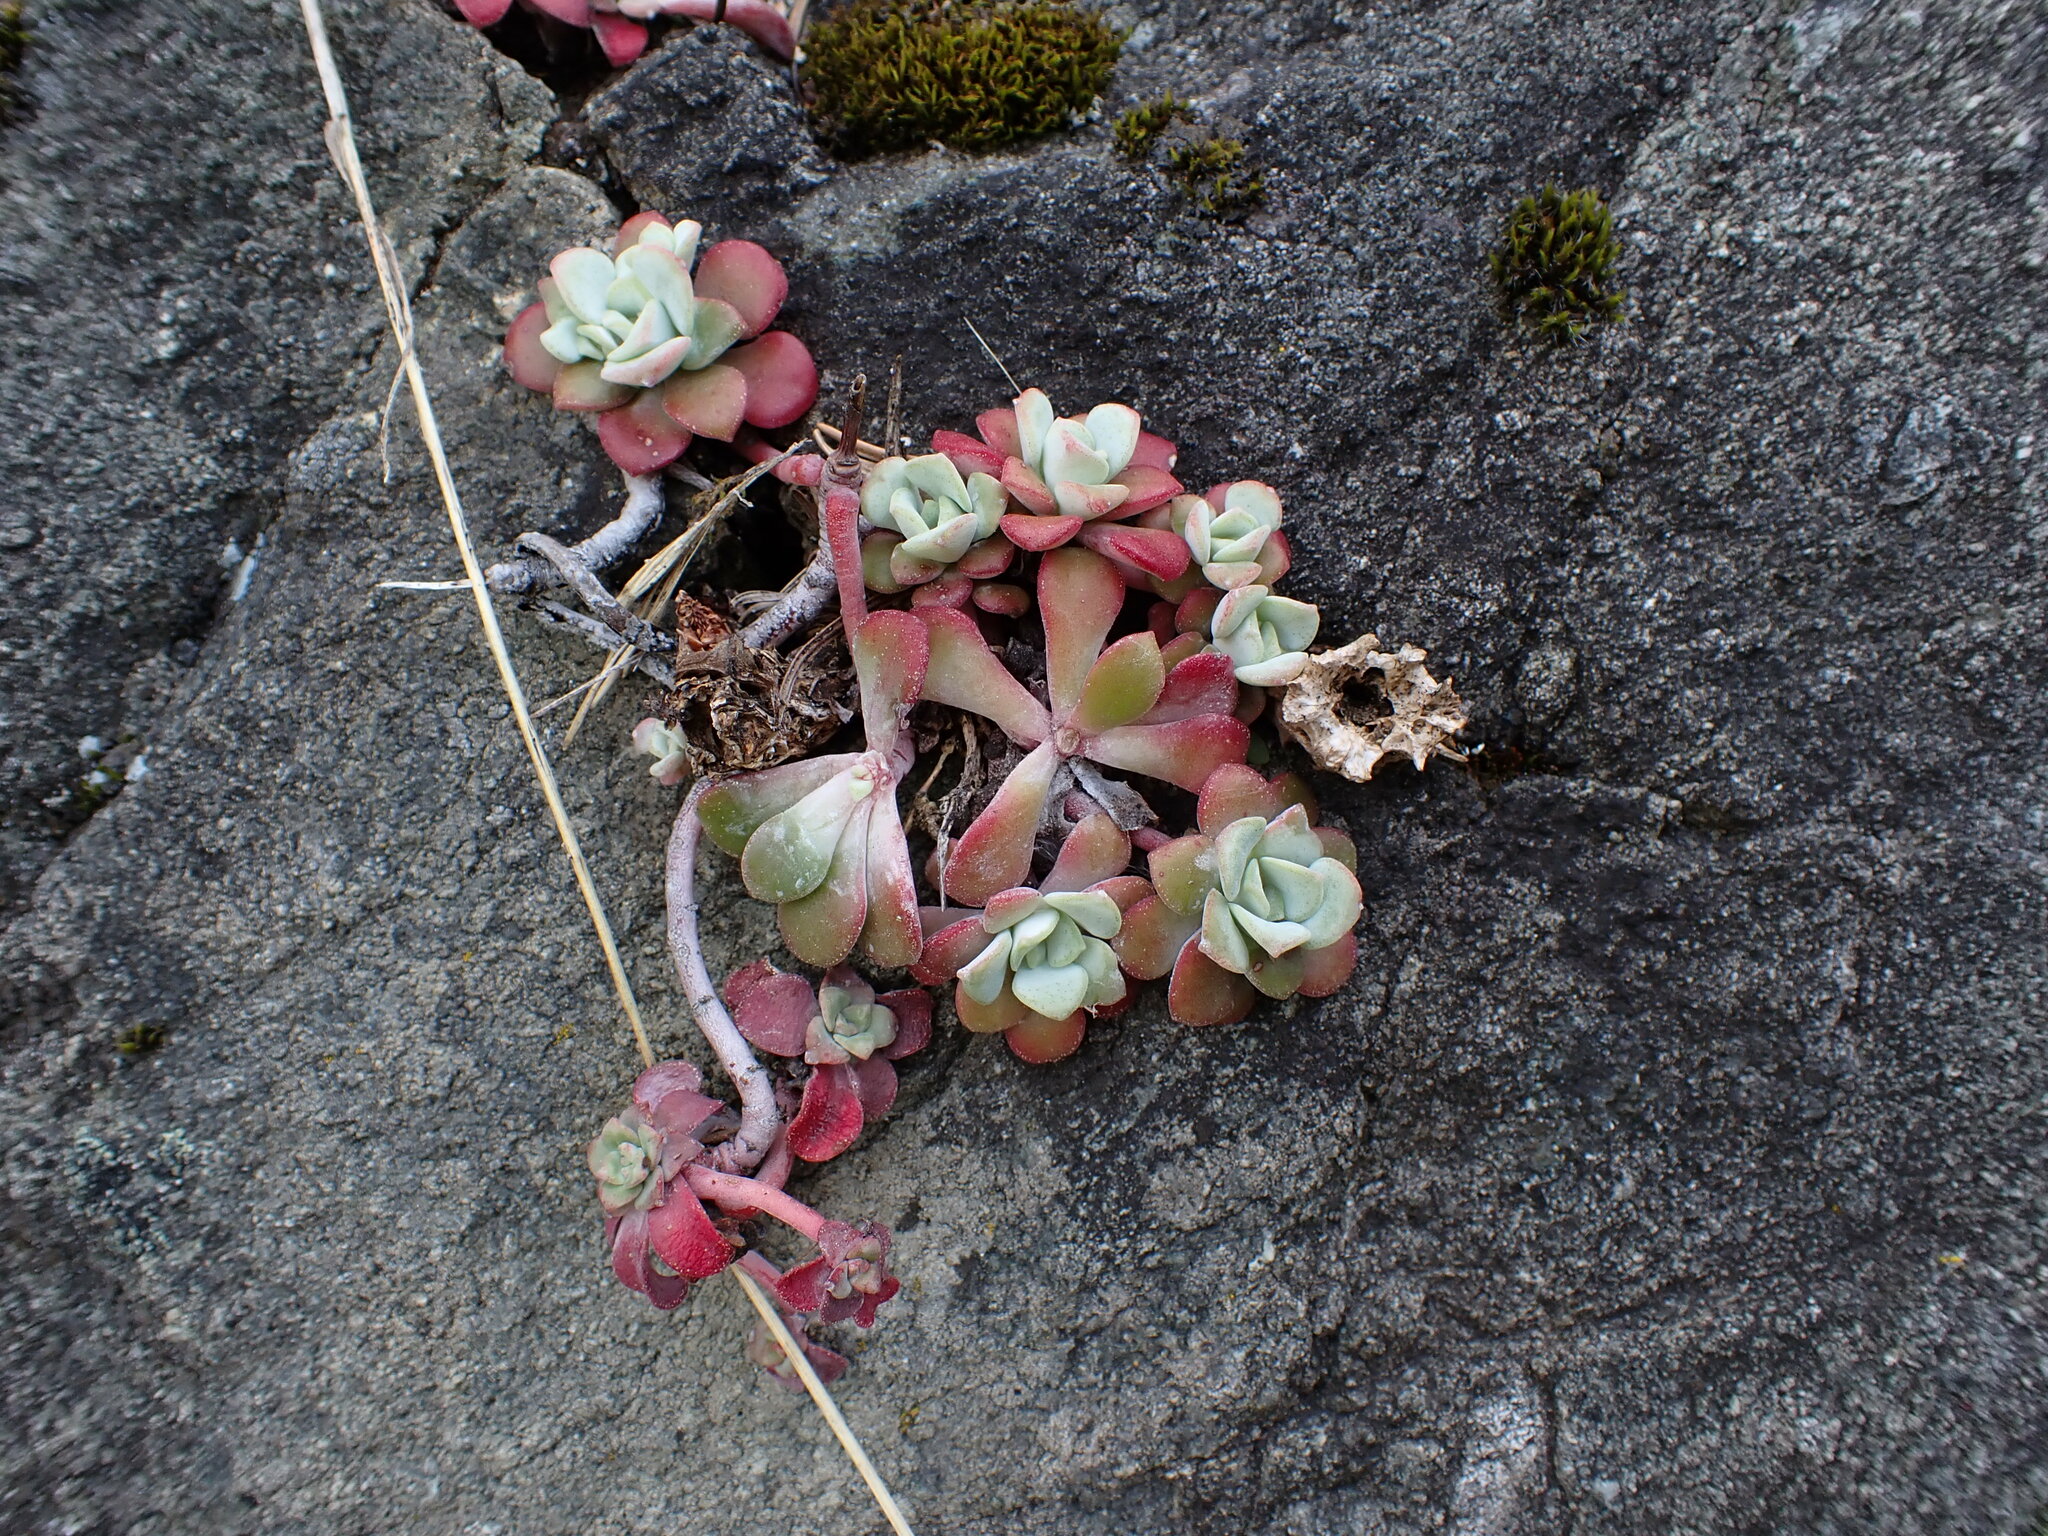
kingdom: Plantae
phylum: Tracheophyta
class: Magnoliopsida
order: Saxifragales
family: Crassulaceae
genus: Sedum
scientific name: Sedum spathulifolium
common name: Colorado stonecrop
